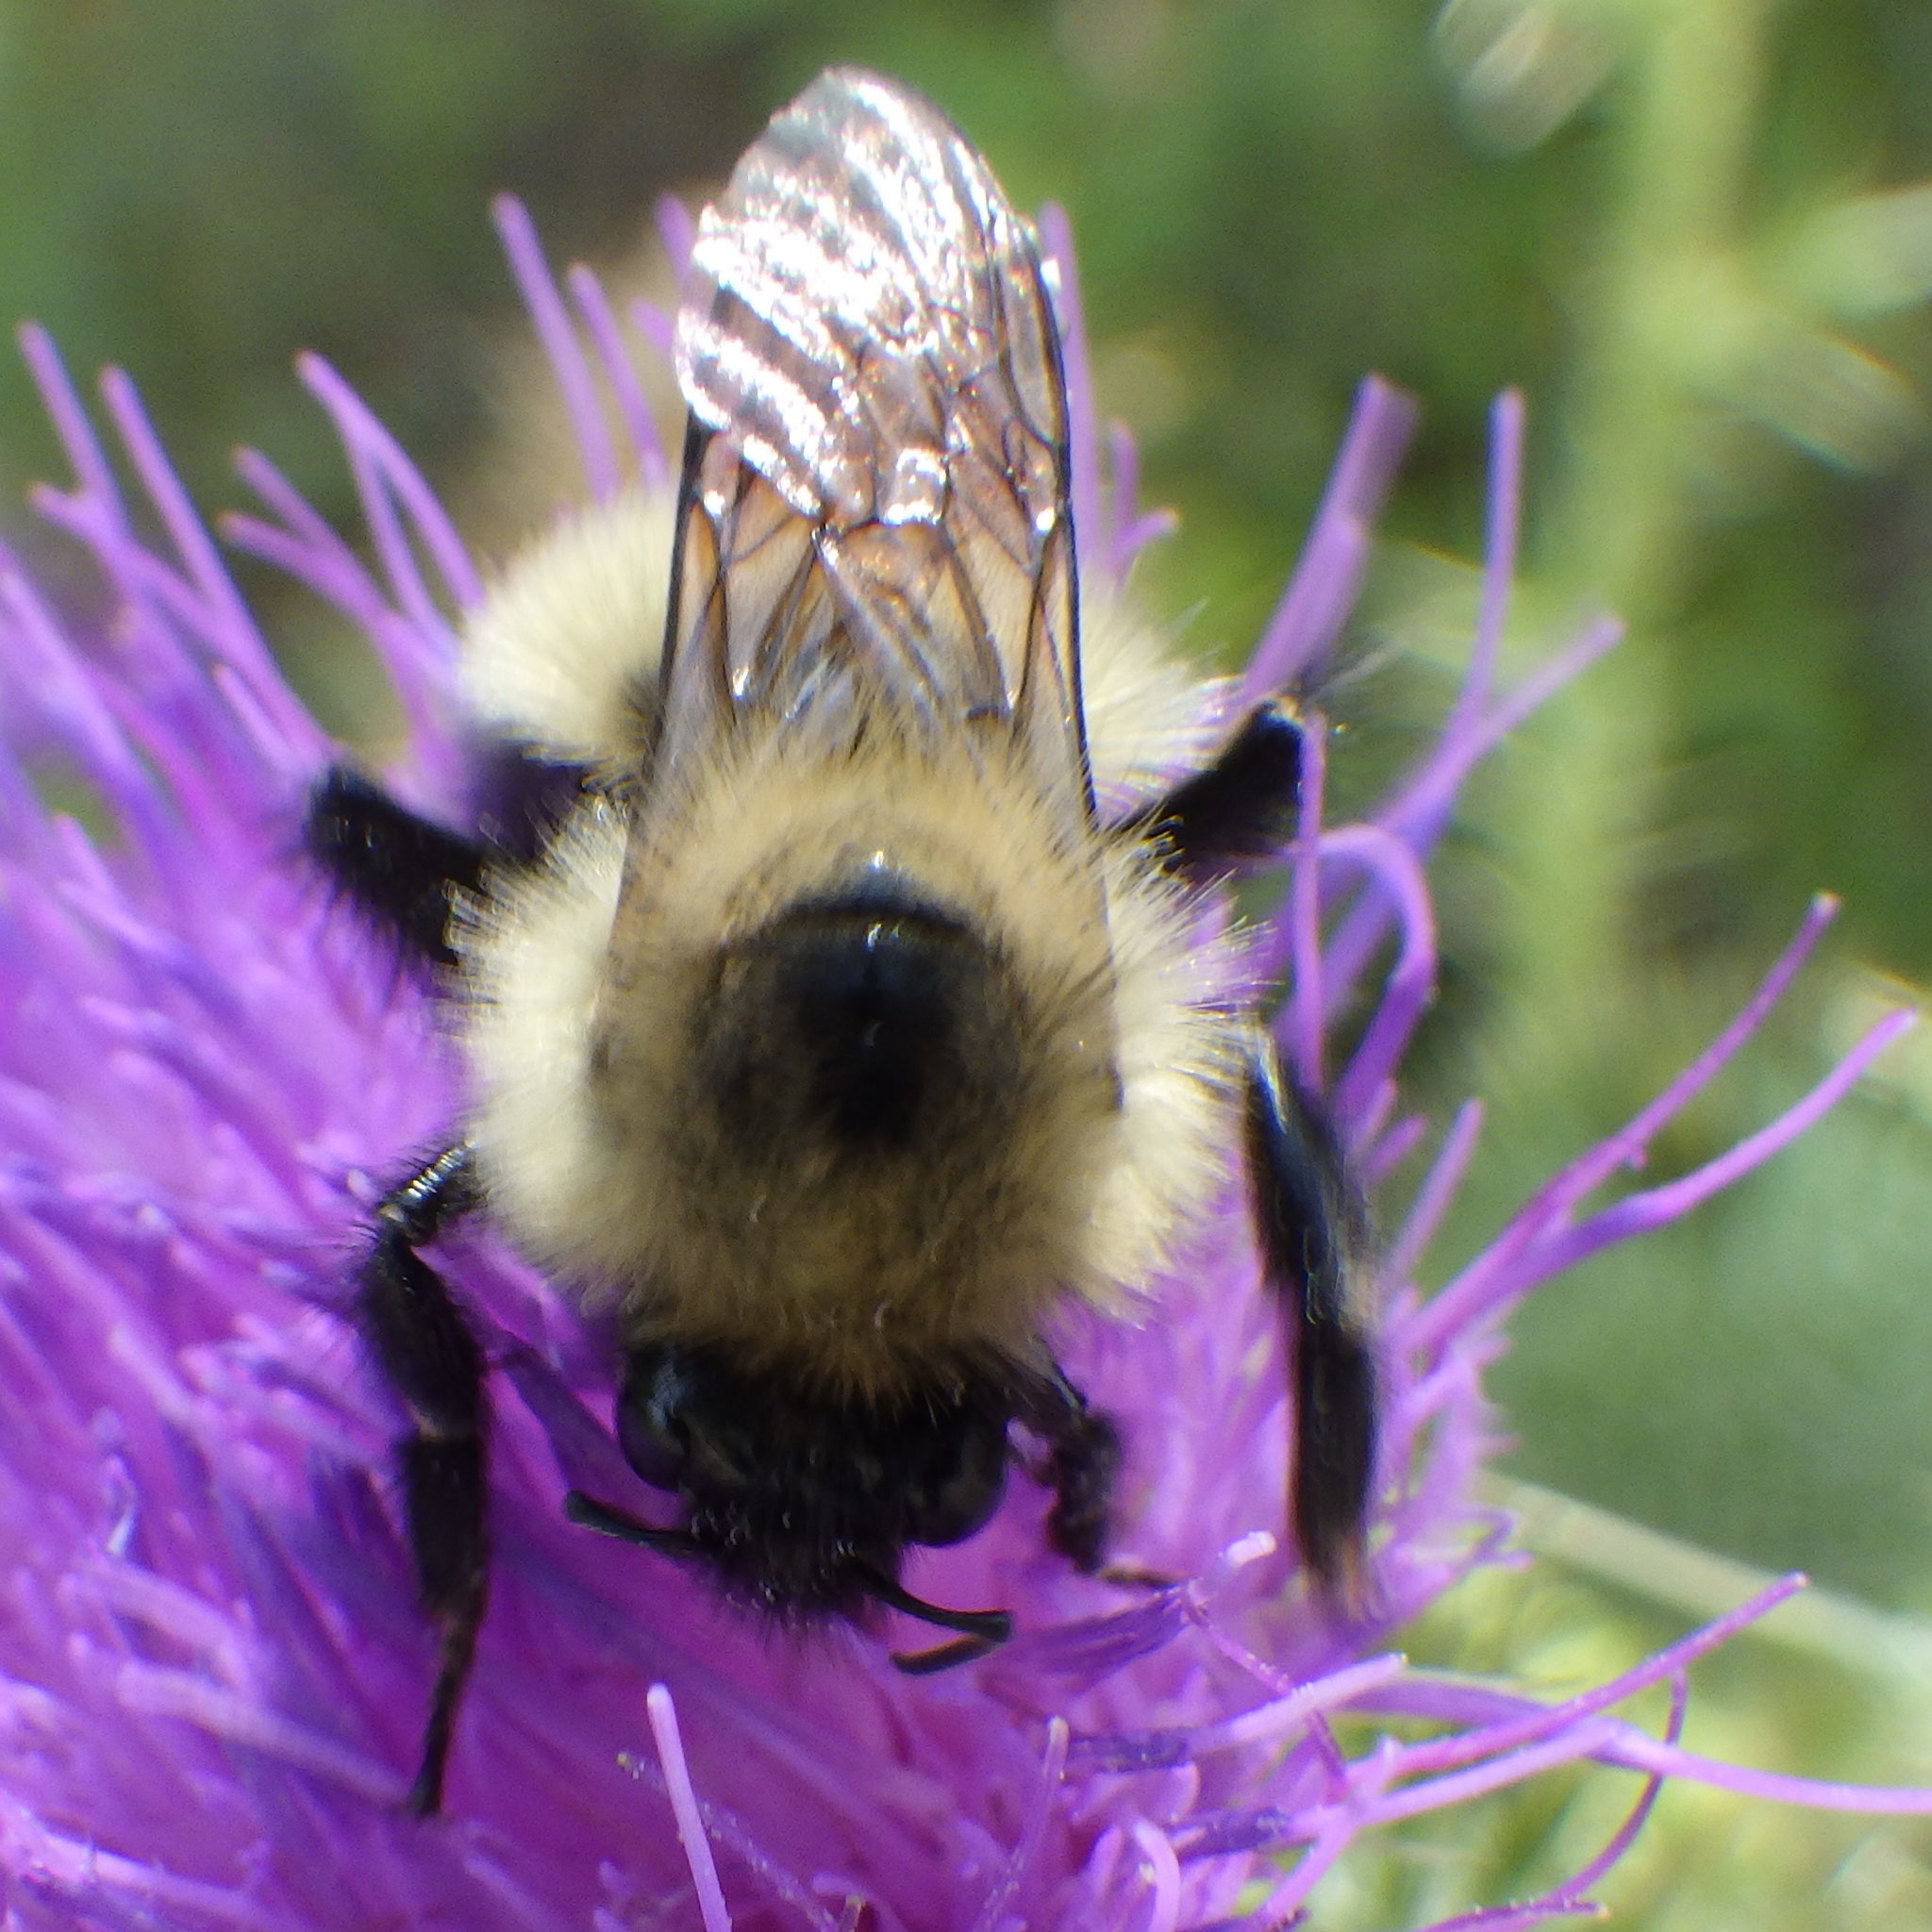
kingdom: Animalia
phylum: Arthropoda
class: Insecta
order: Hymenoptera
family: Apidae
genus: Pyrobombus
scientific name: Pyrobombus
